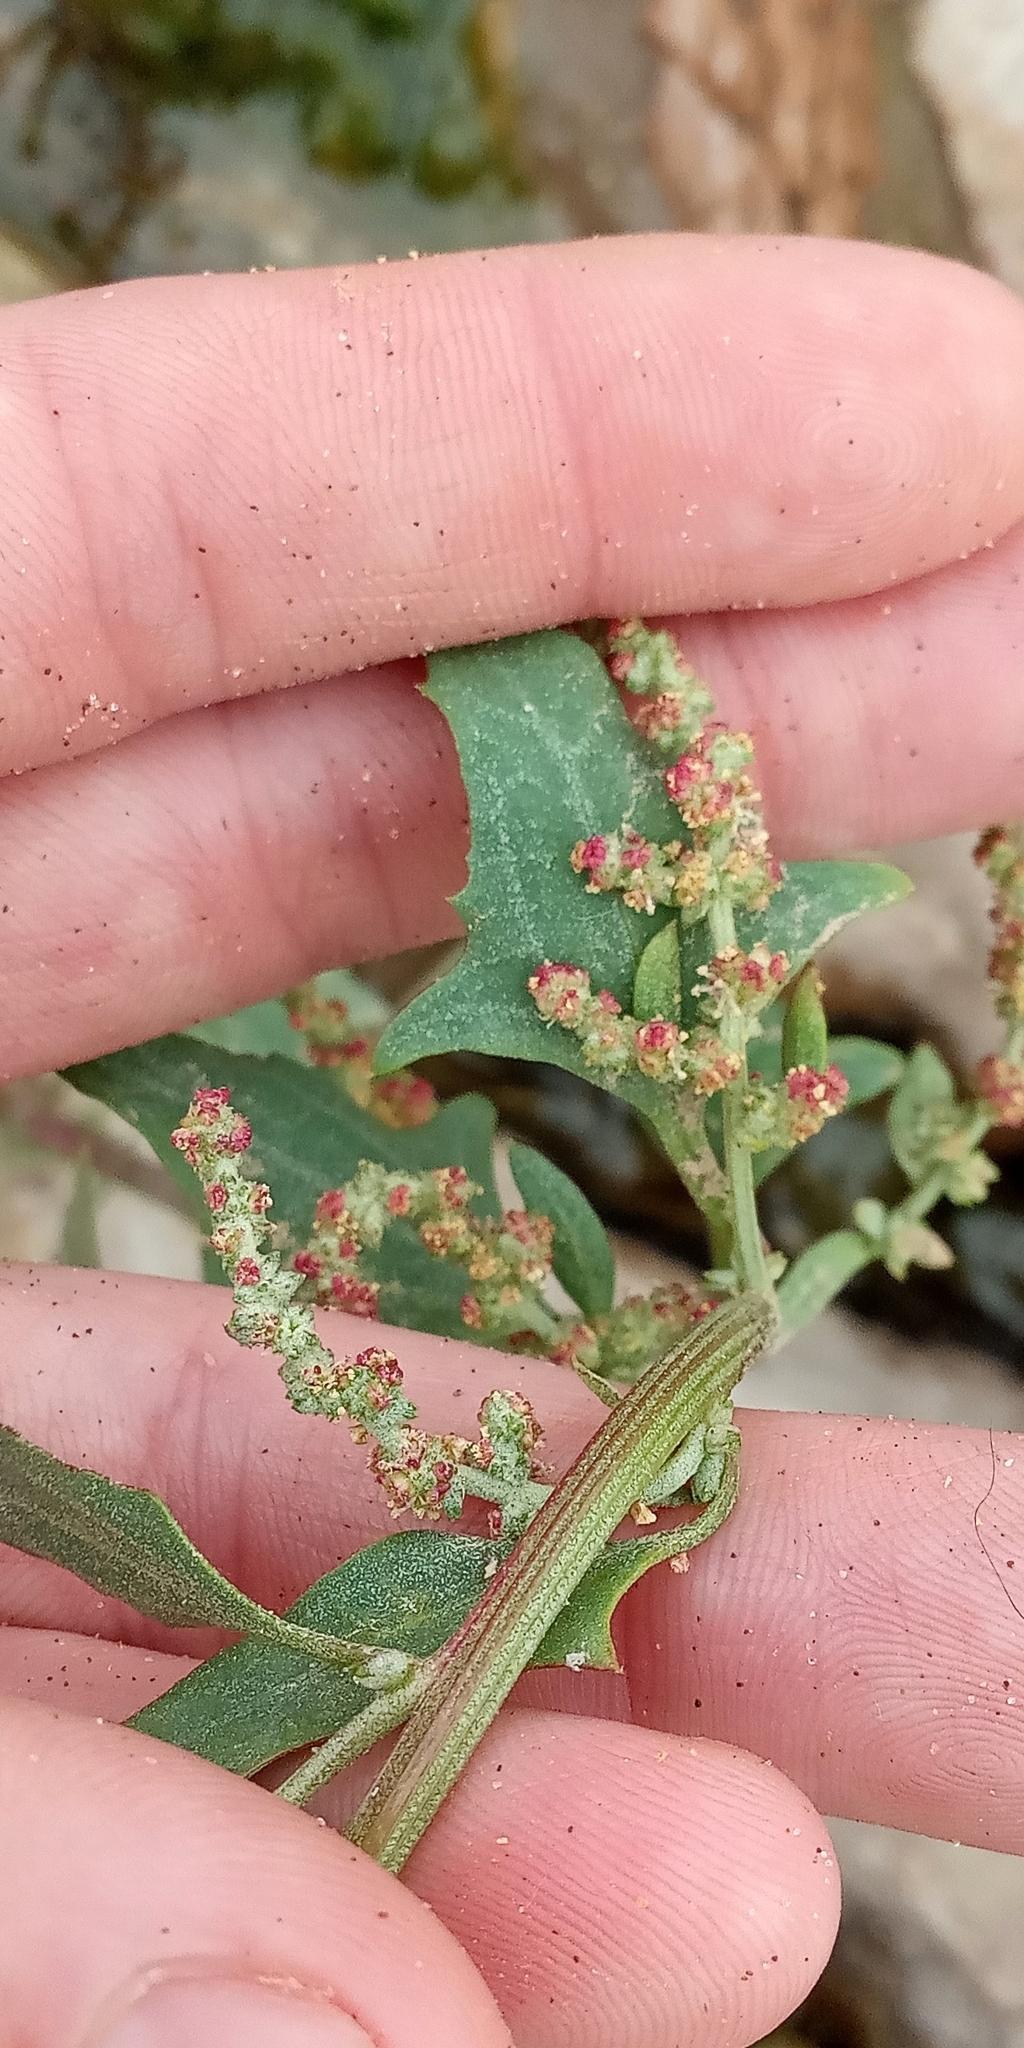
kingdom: Plantae
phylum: Tracheophyta
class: Magnoliopsida
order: Caryophyllales
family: Amaranthaceae
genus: Oxybasis
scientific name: Oxybasis macrosperma
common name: Large-seed goosefoot
